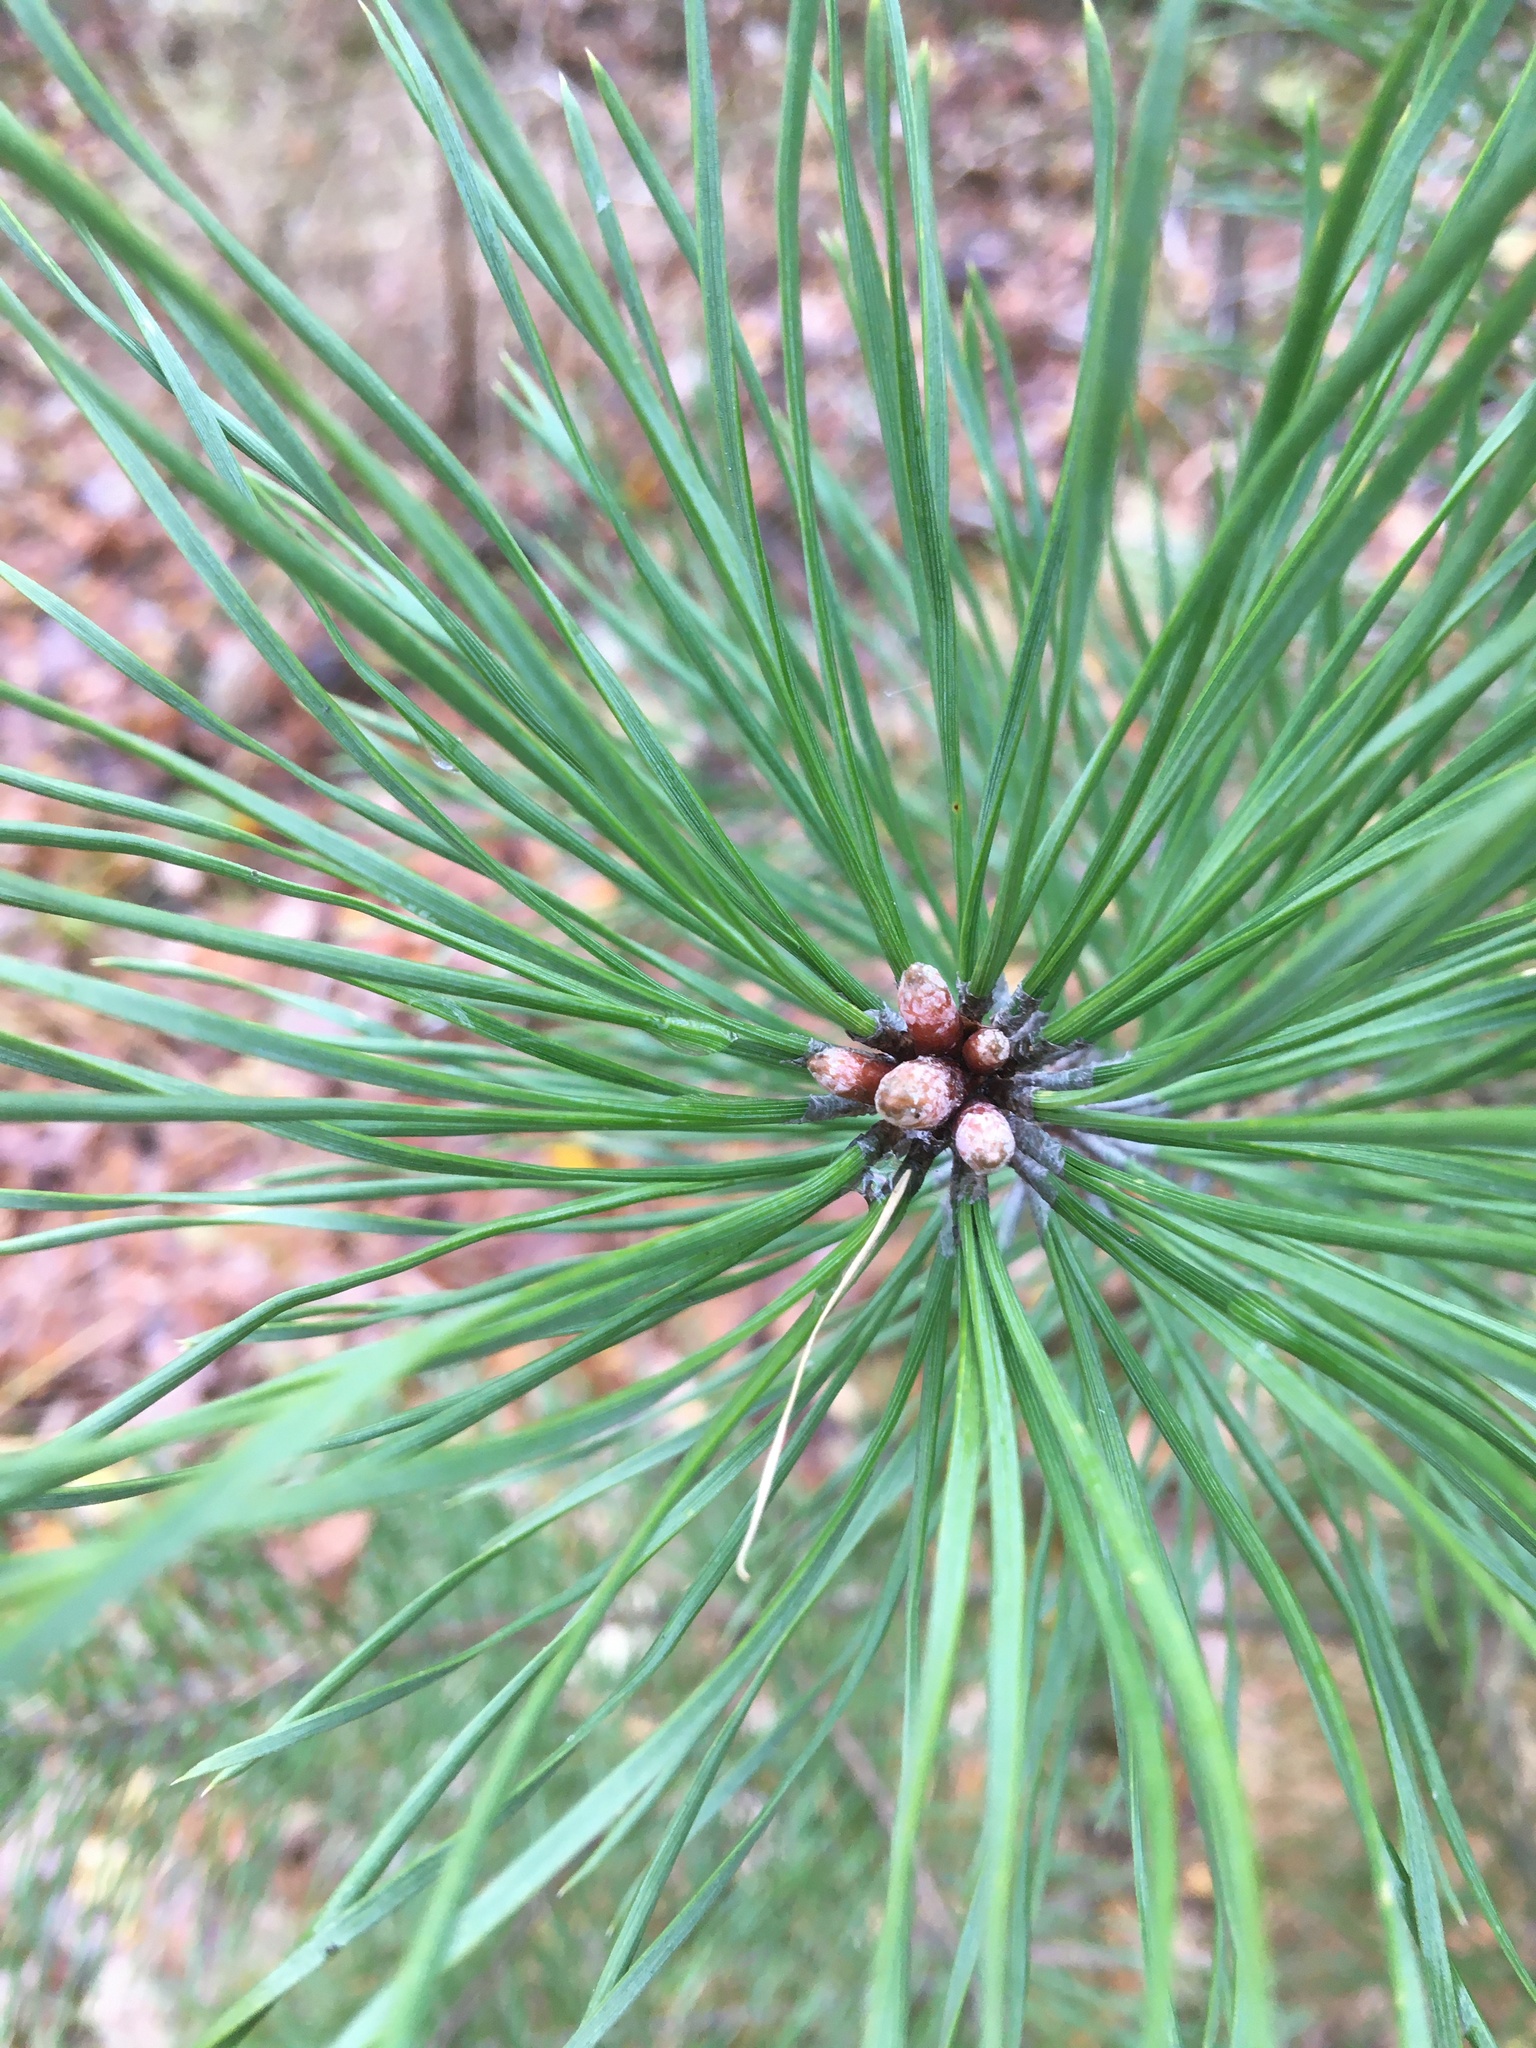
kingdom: Plantae
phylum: Tracheophyta
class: Pinopsida
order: Pinales
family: Pinaceae
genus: Pinus
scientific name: Pinus sylvestris
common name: Scots pine
